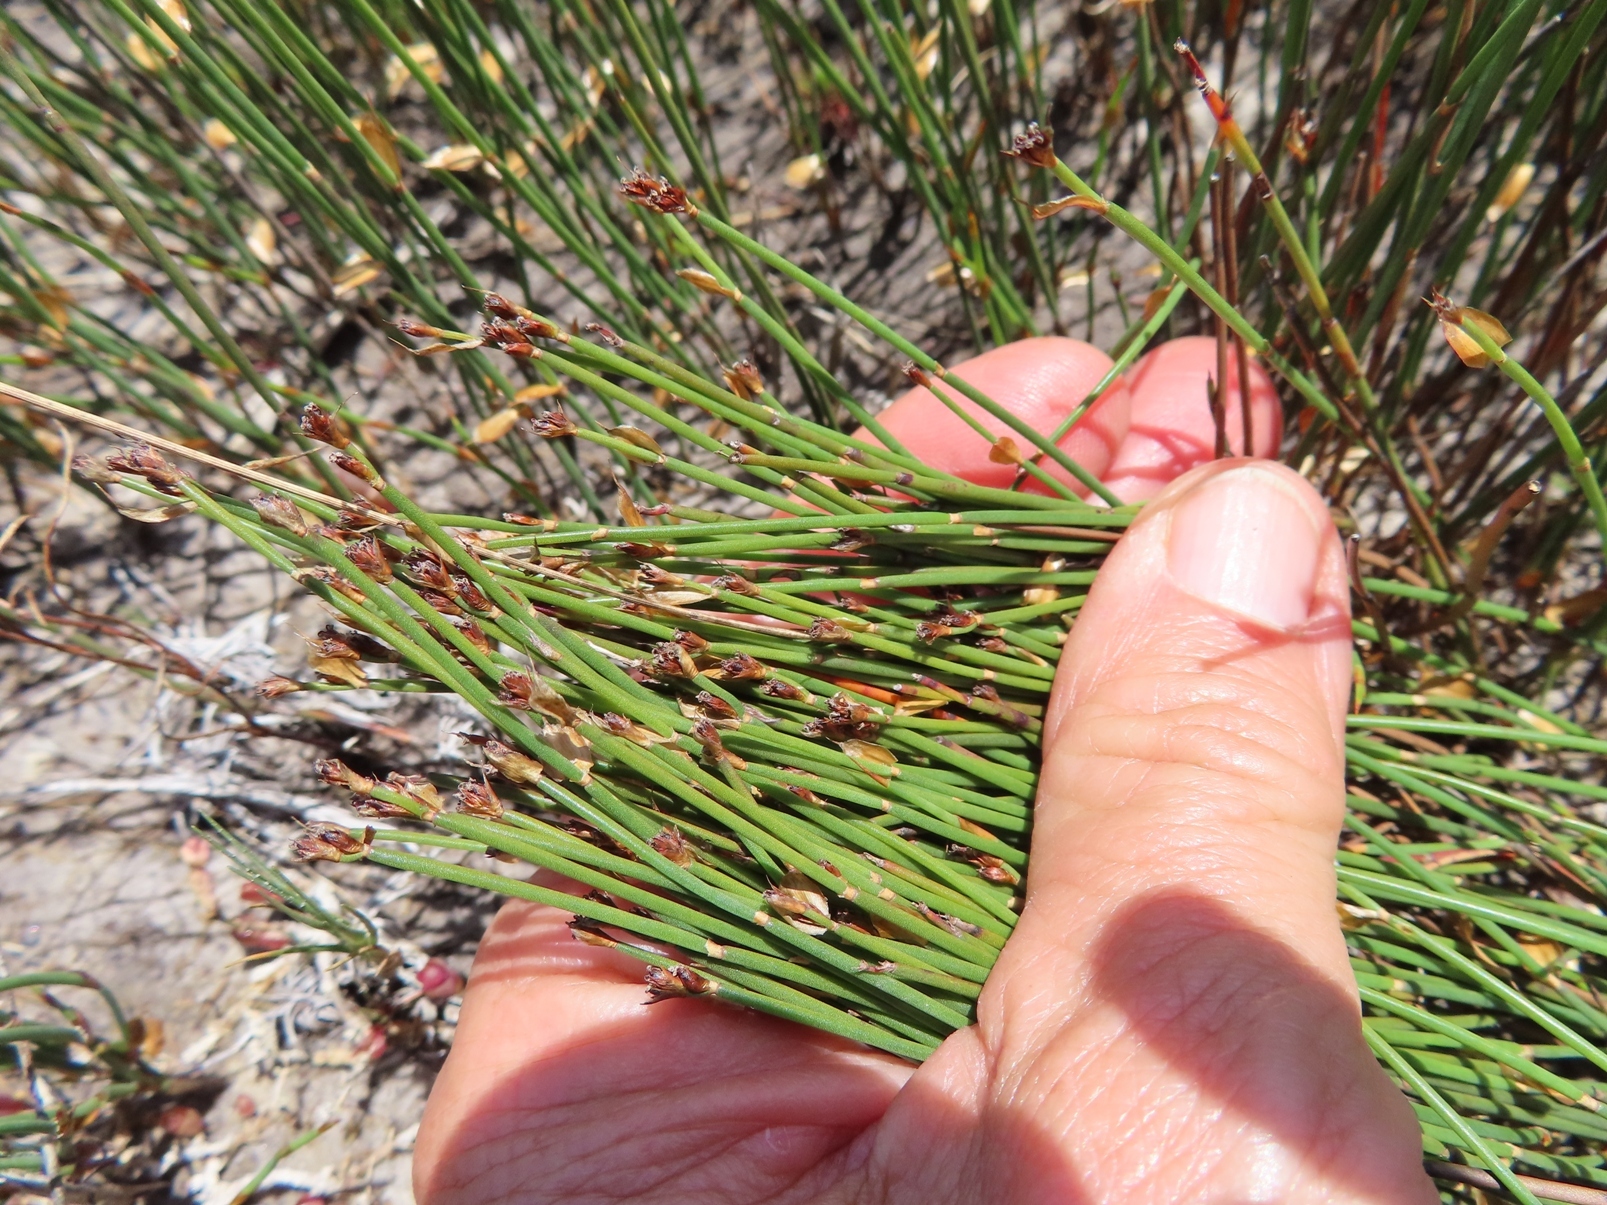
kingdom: Plantae
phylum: Tracheophyta
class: Liliopsida
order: Poales
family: Restionaceae
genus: Elegia
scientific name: Elegia verreauxii
